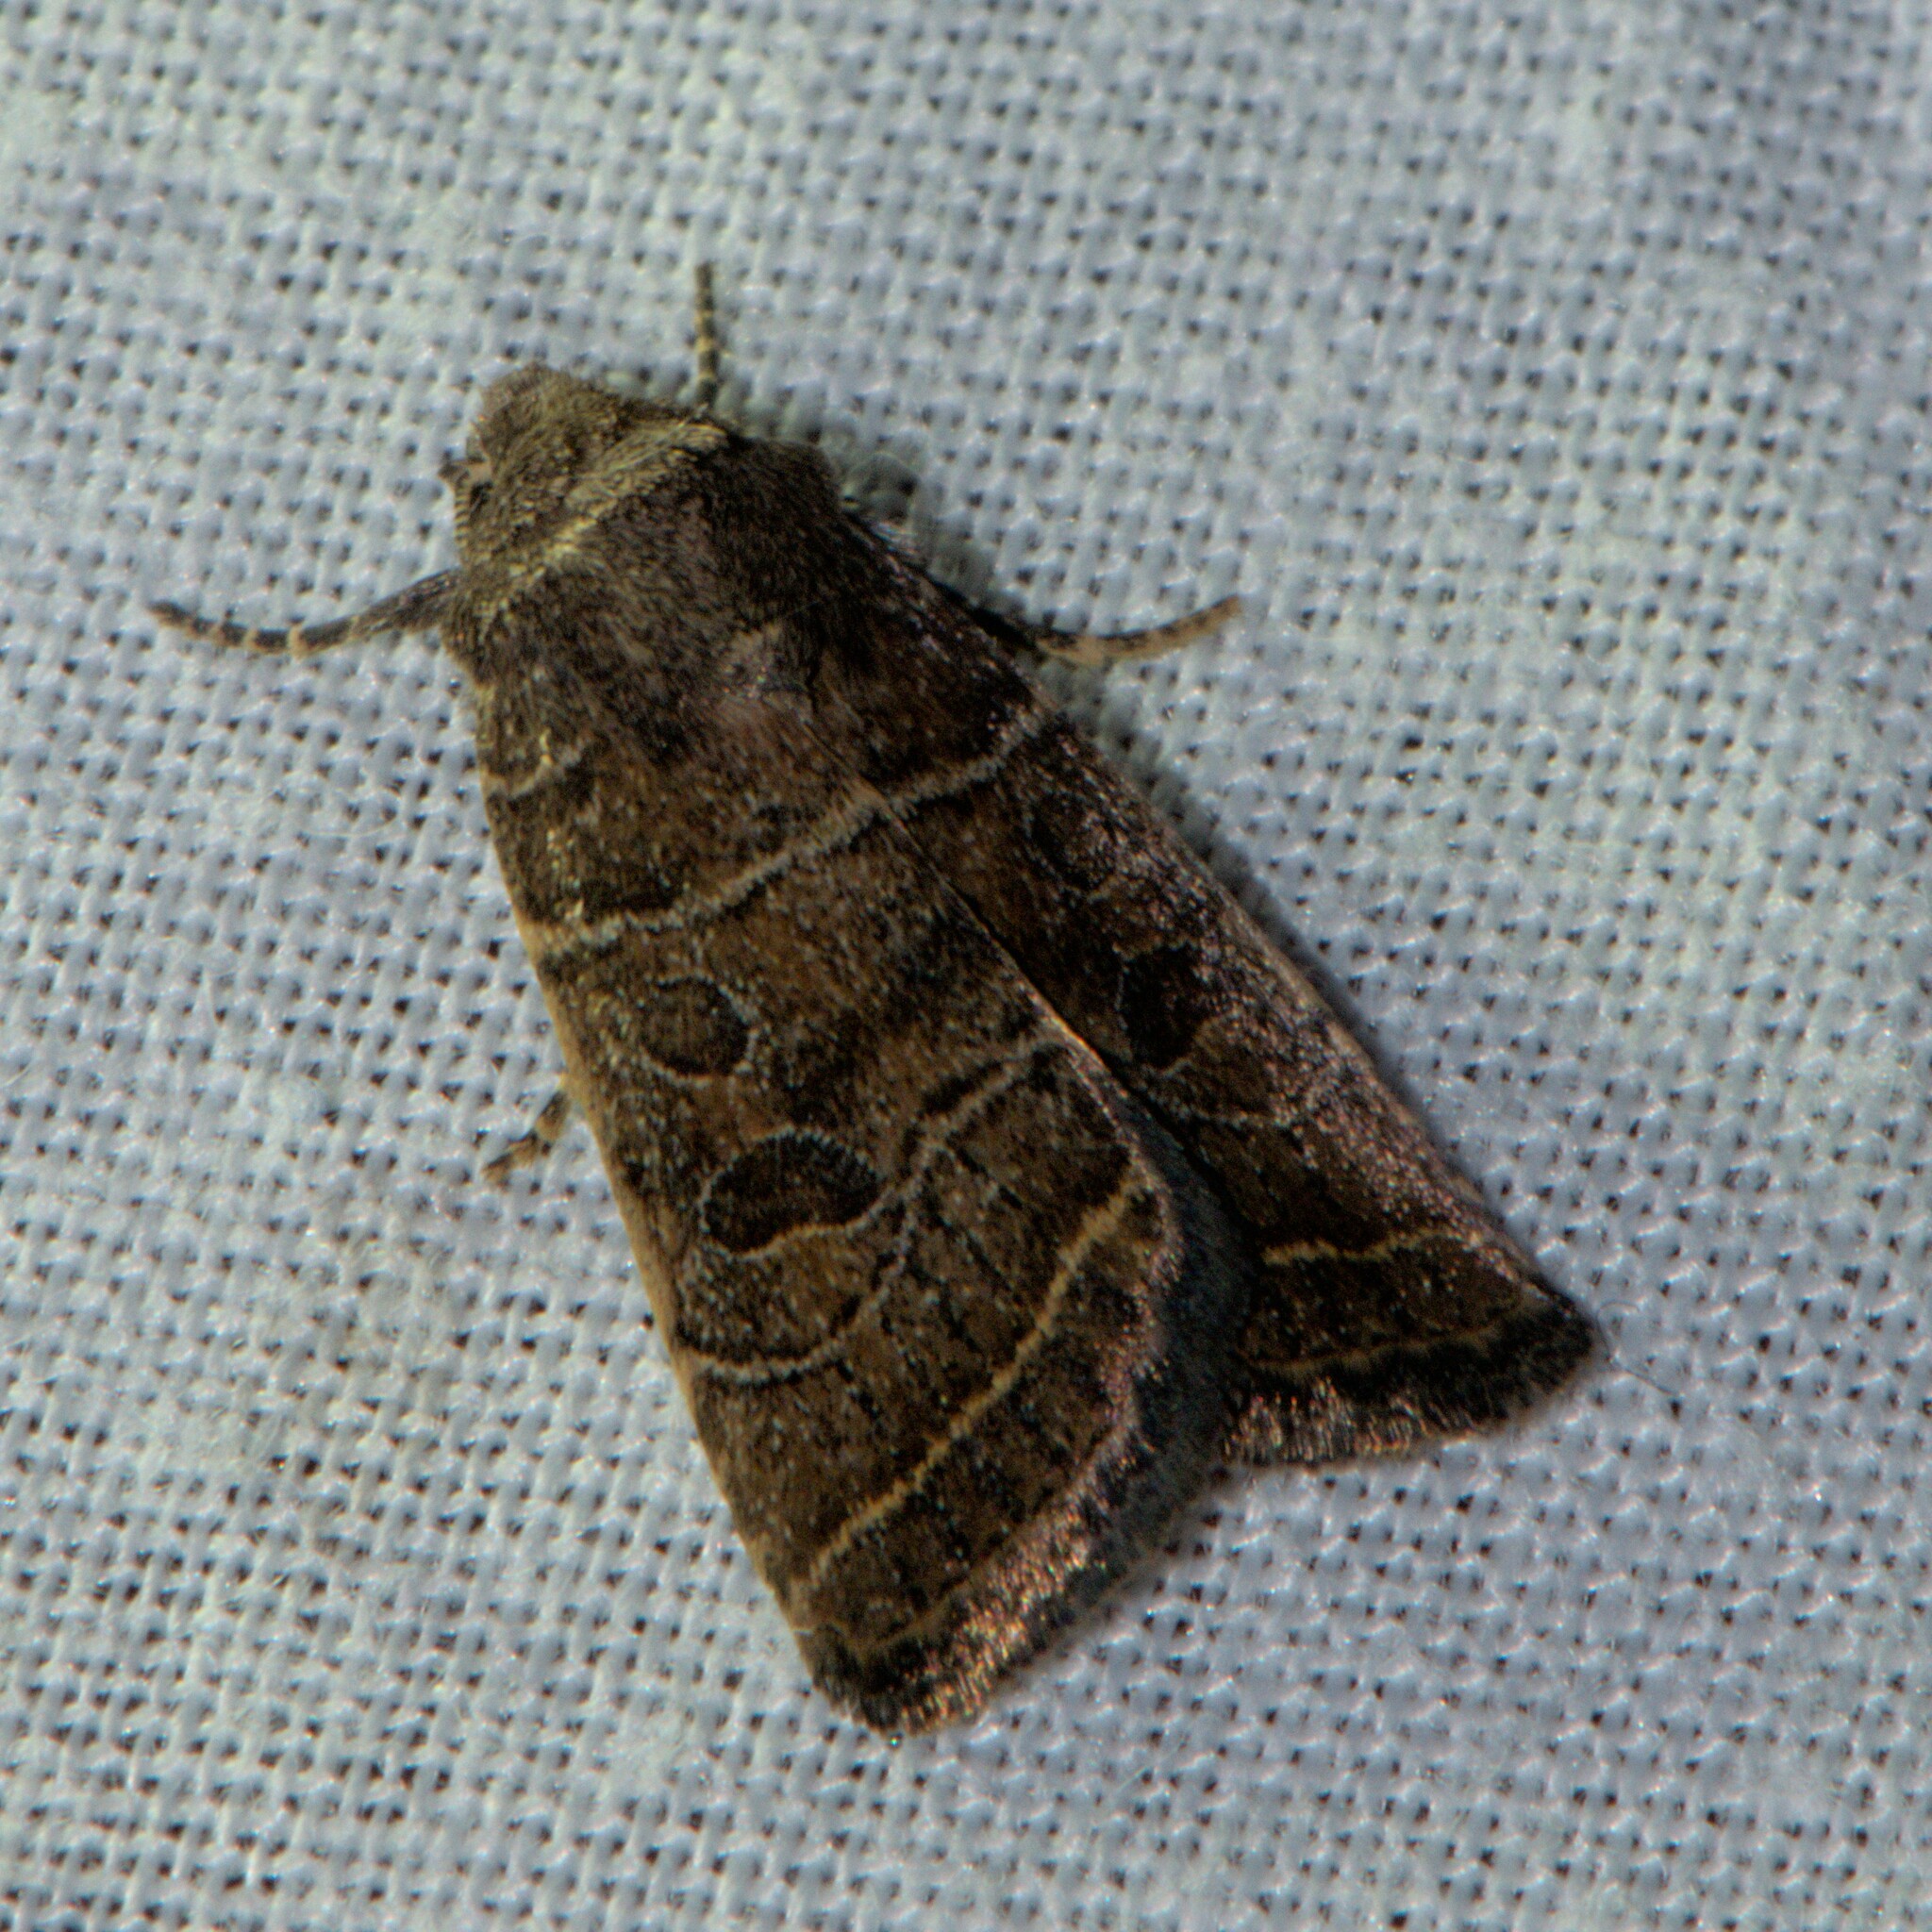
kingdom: Animalia
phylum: Arthropoda
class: Insecta
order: Lepidoptera
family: Noctuidae
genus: Athetis
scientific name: Athetis divisa
